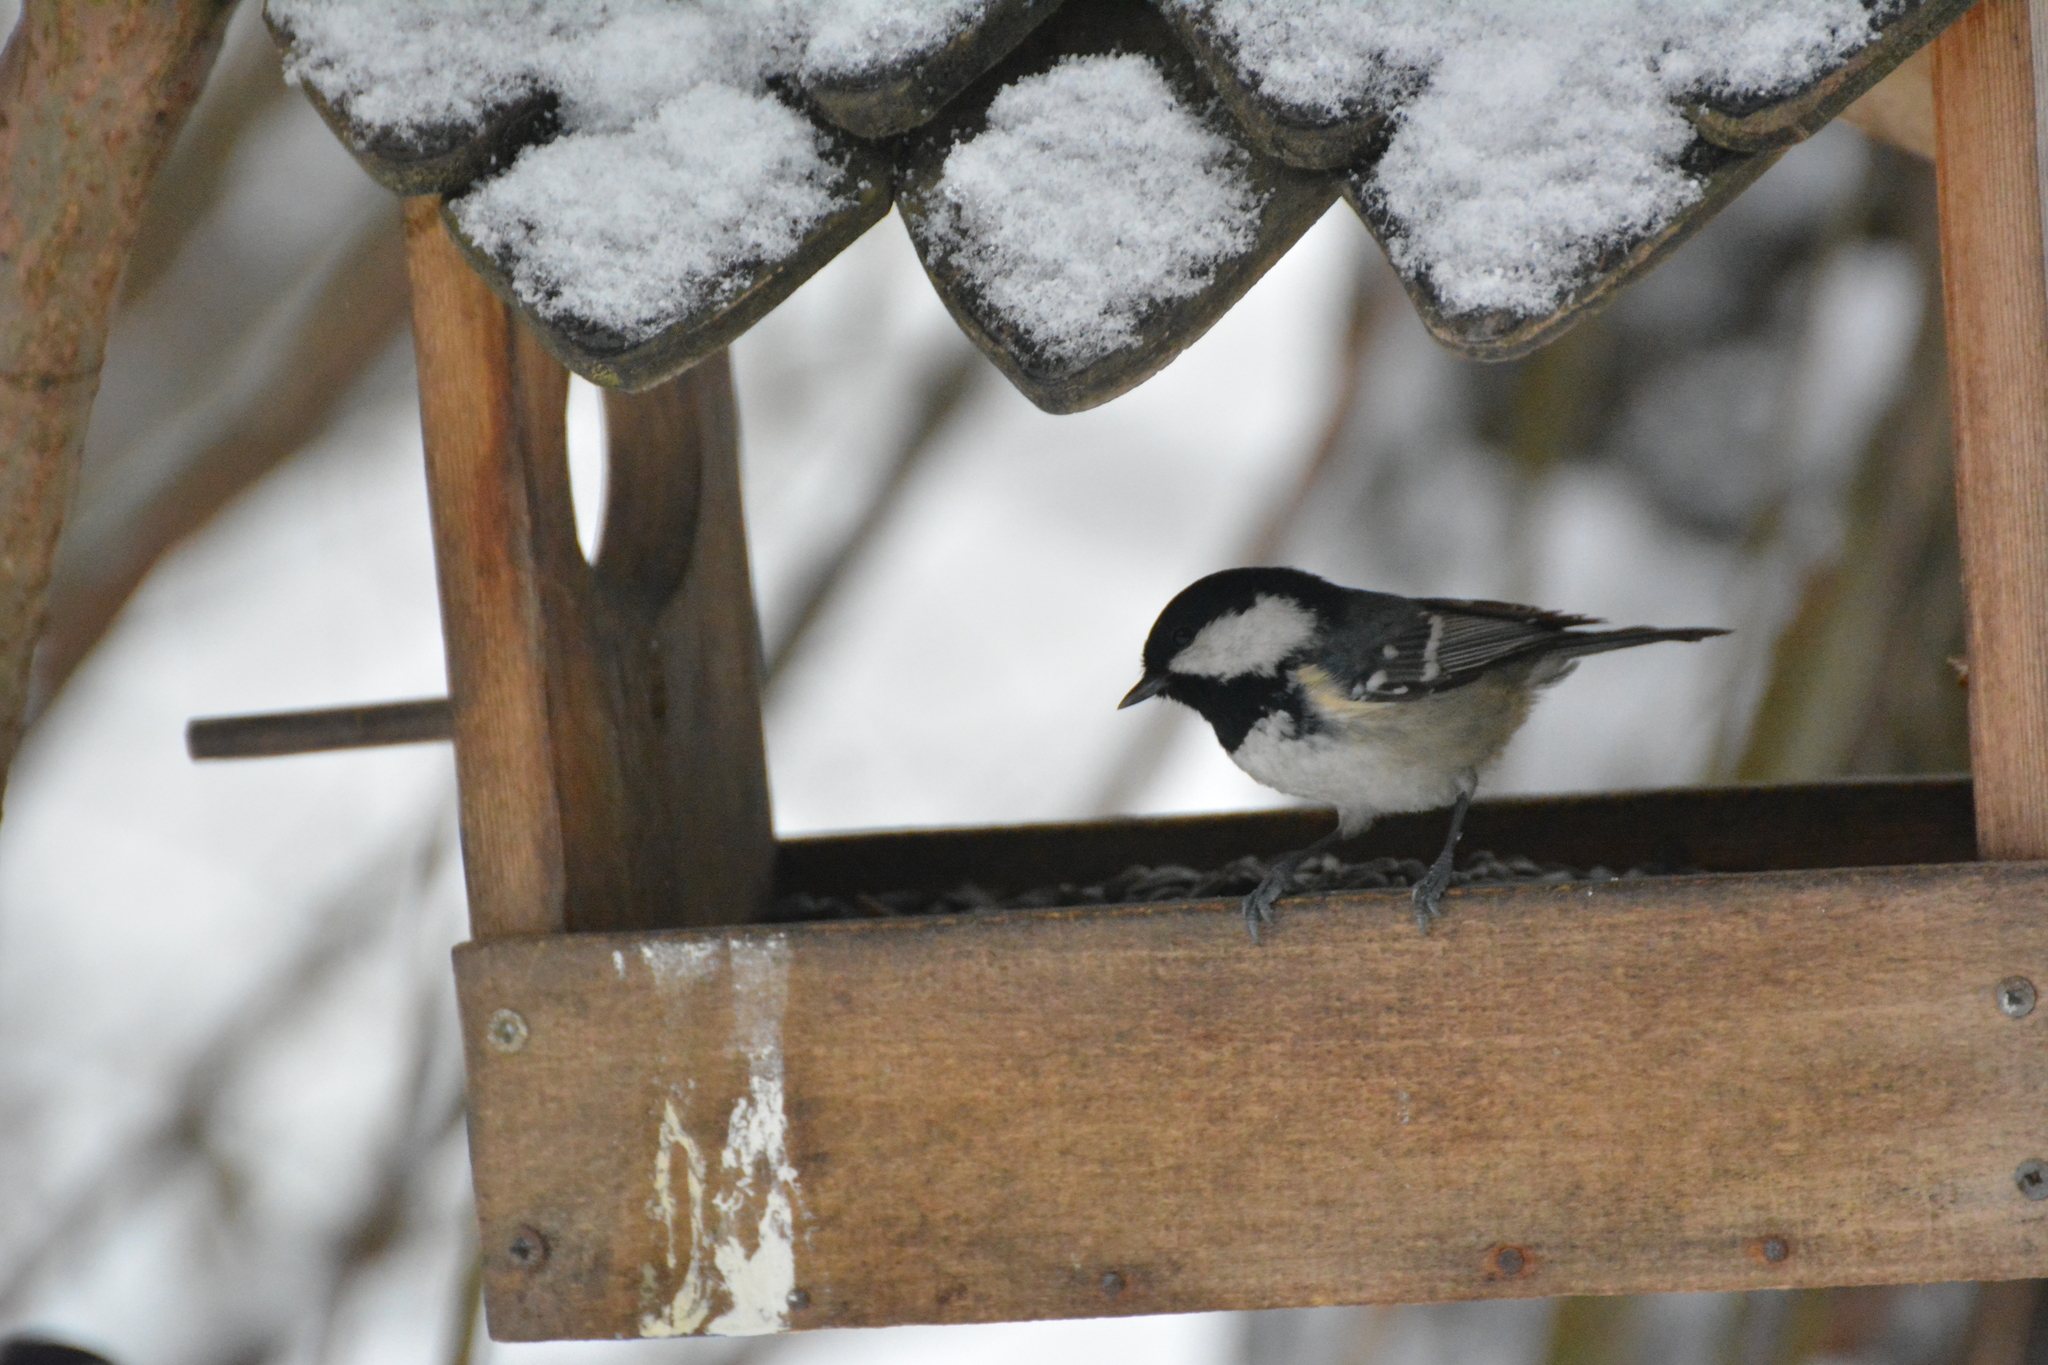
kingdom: Animalia
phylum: Chordata
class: Aves
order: Passeriformes
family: Paridae
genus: Periparus
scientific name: Periparus ater
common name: Coal tit
